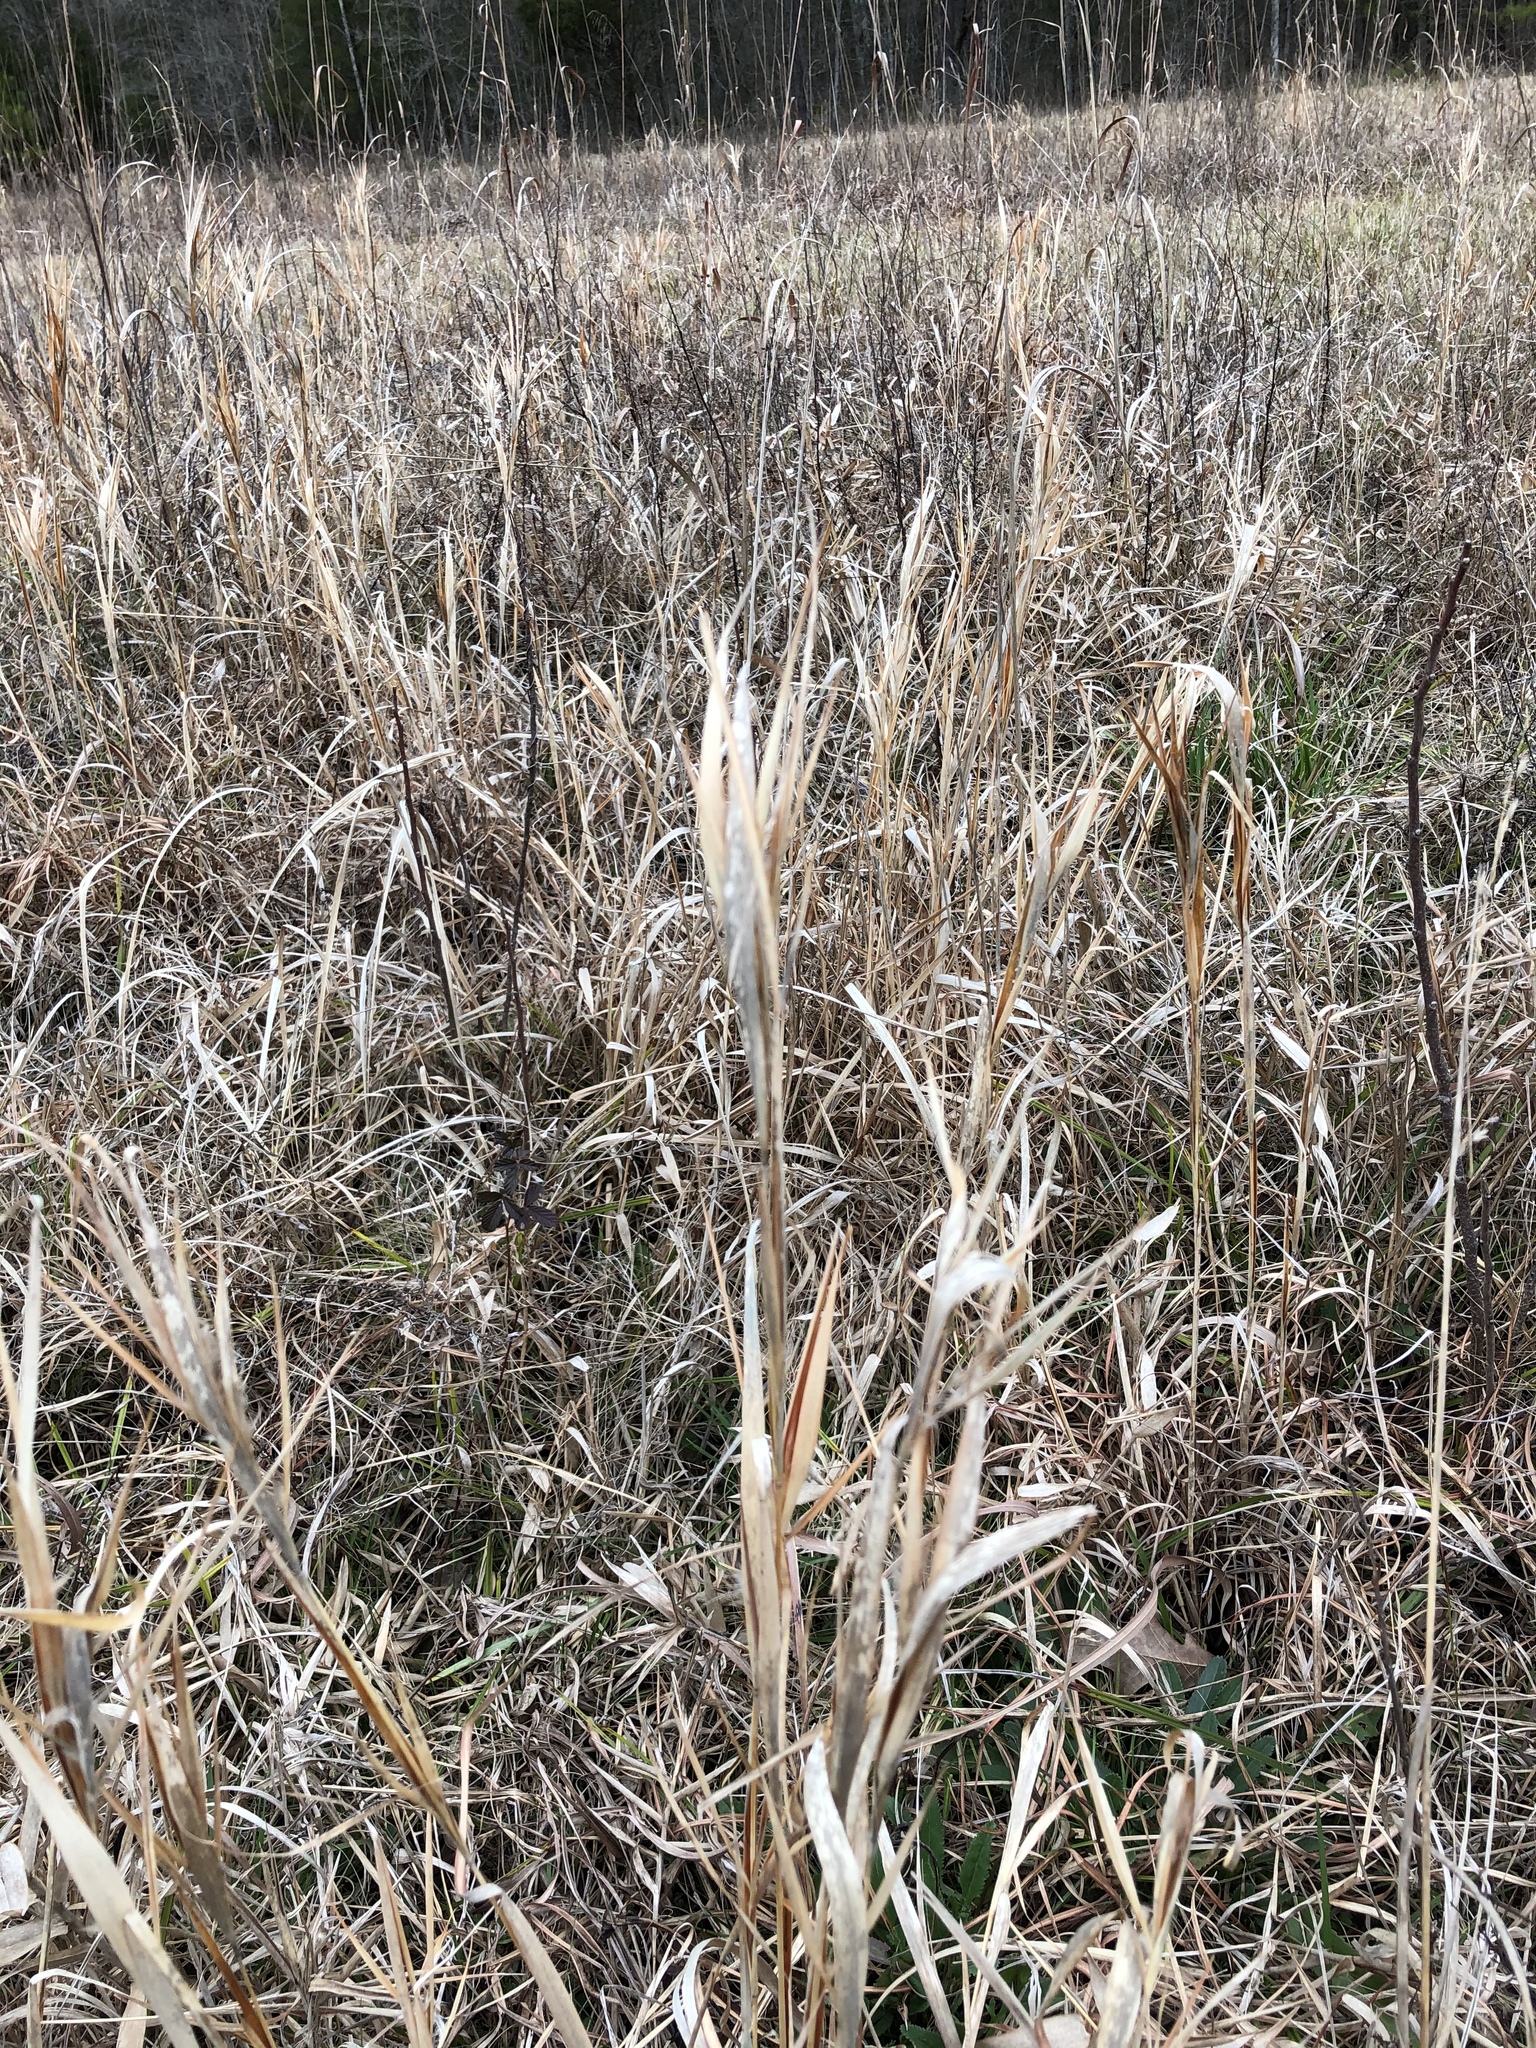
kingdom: Plantae
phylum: Tracheophyta
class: Liliopsida
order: Poales
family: Poaceae
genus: Andropogon
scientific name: Andropogon gyrans
